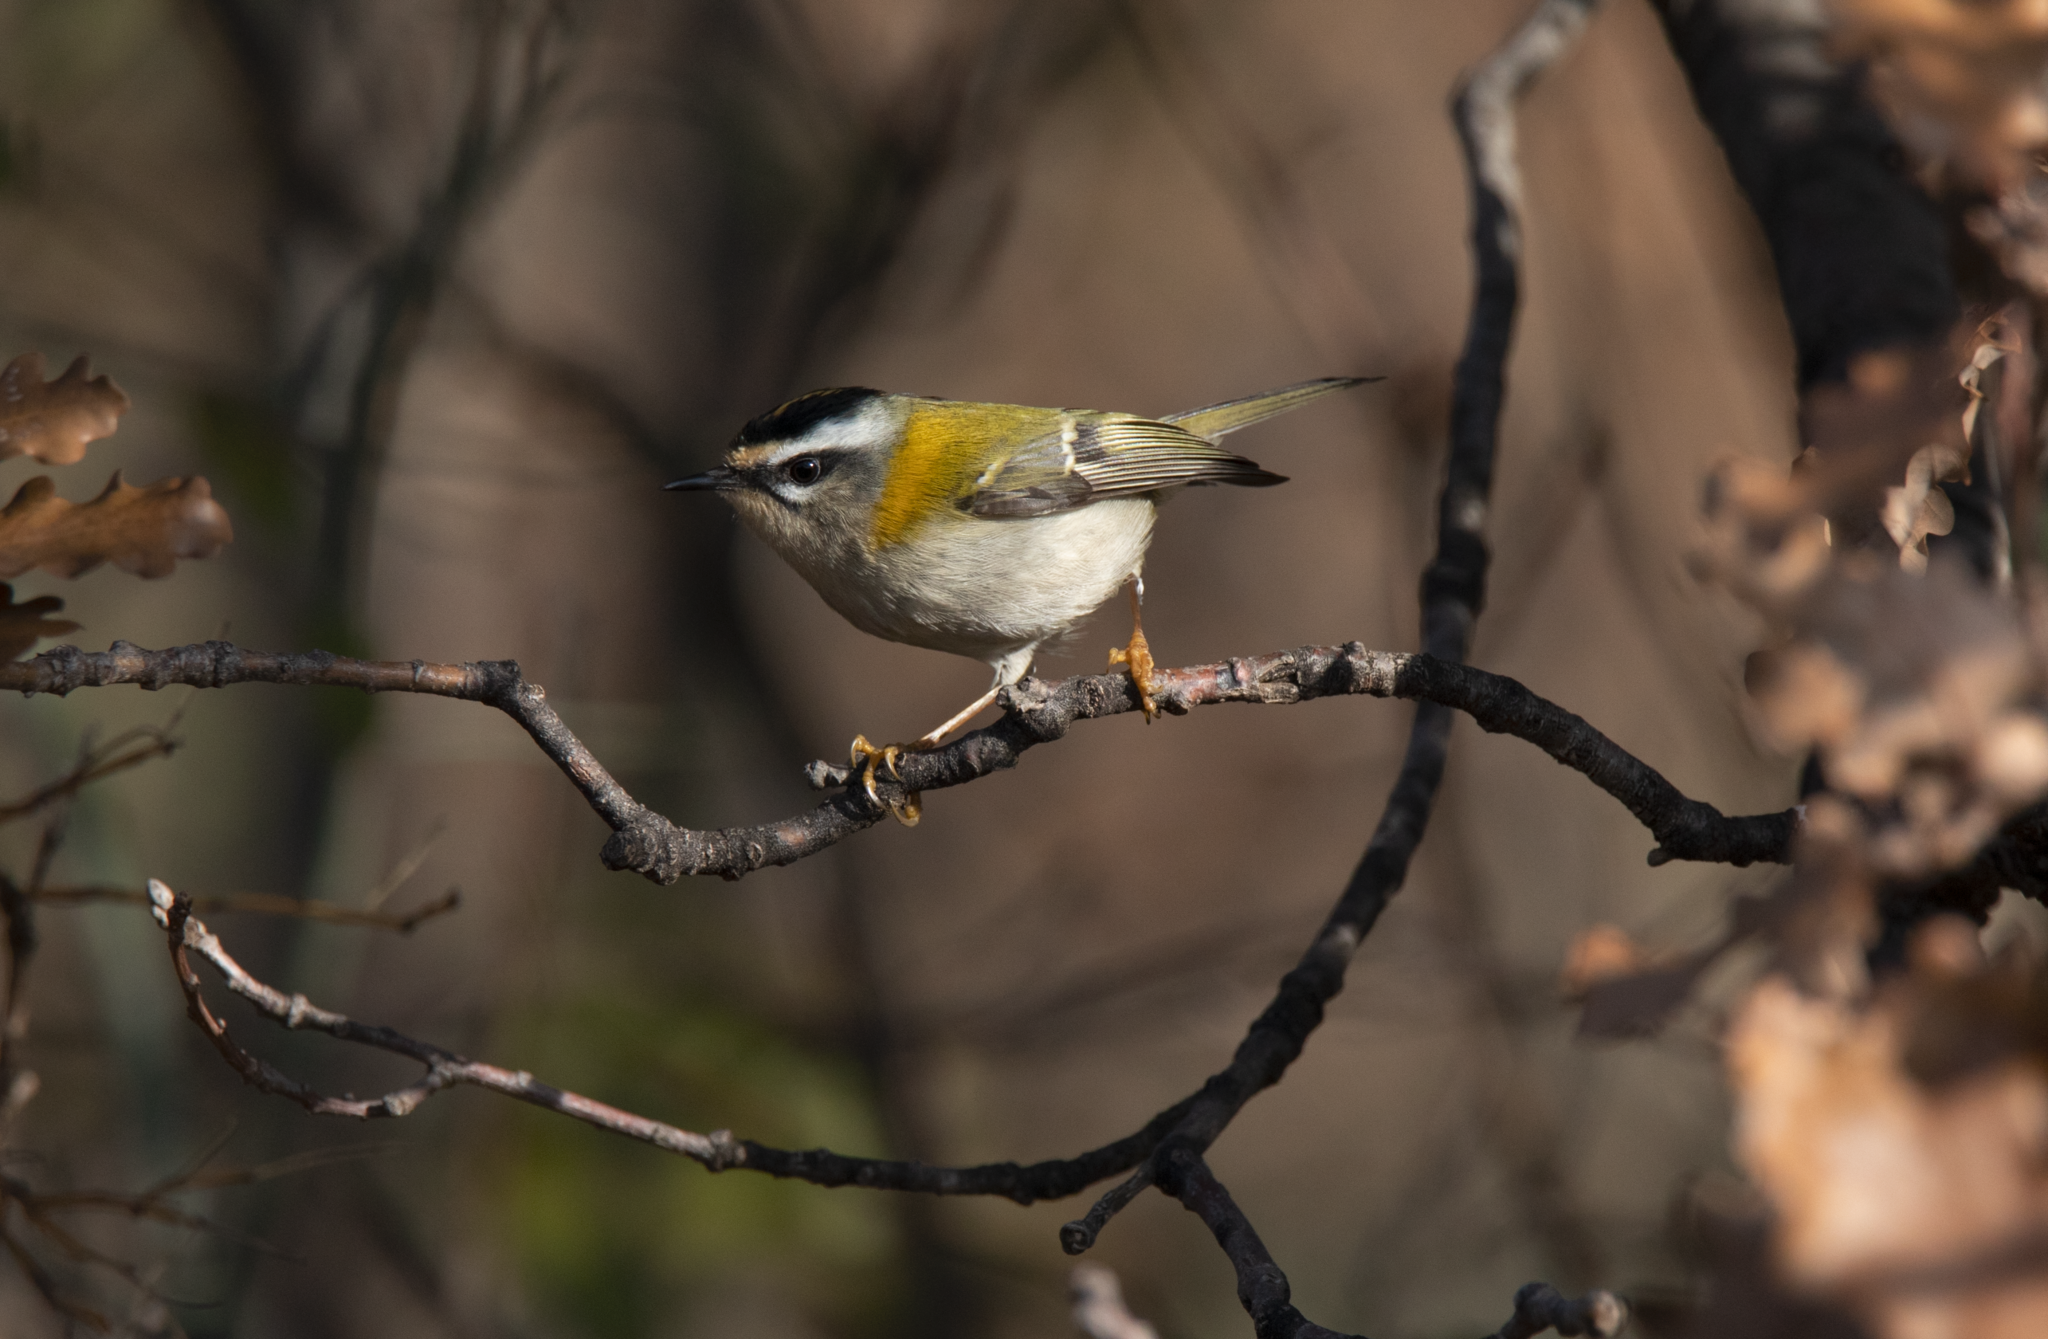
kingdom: Animalia
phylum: Chordata
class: Aves
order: Passeriformes
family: Regulidae
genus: Regulus
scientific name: Regulus ignicapilla
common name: Firecrest
